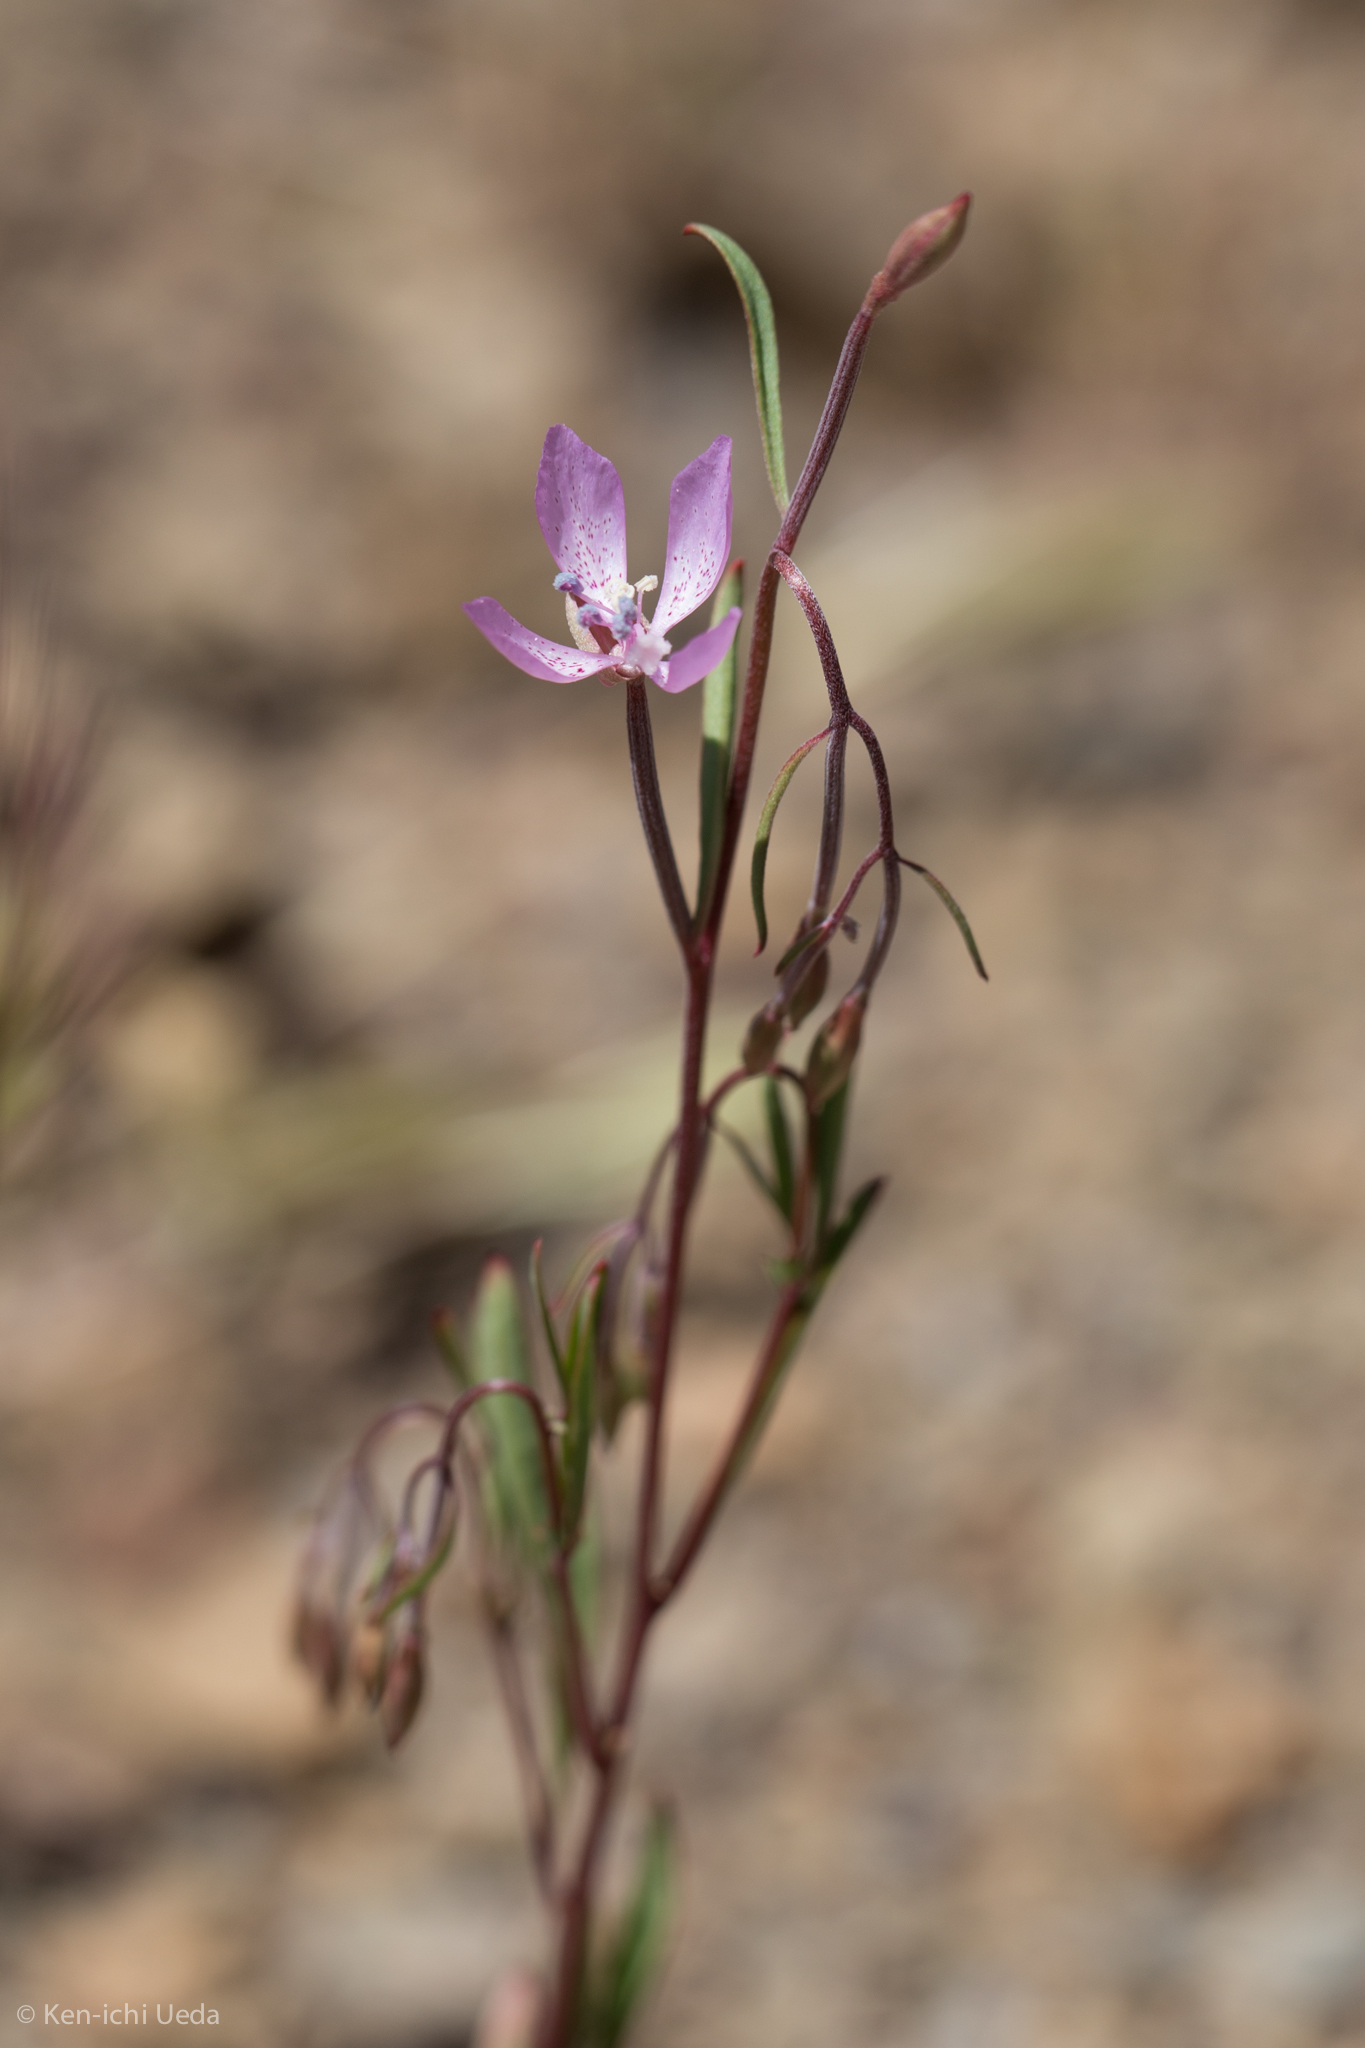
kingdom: Plantae
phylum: Tracheophyta
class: Magnoliopsida
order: Myrtales
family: Onagraceae
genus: Clarkia
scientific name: Clarkia modesta
